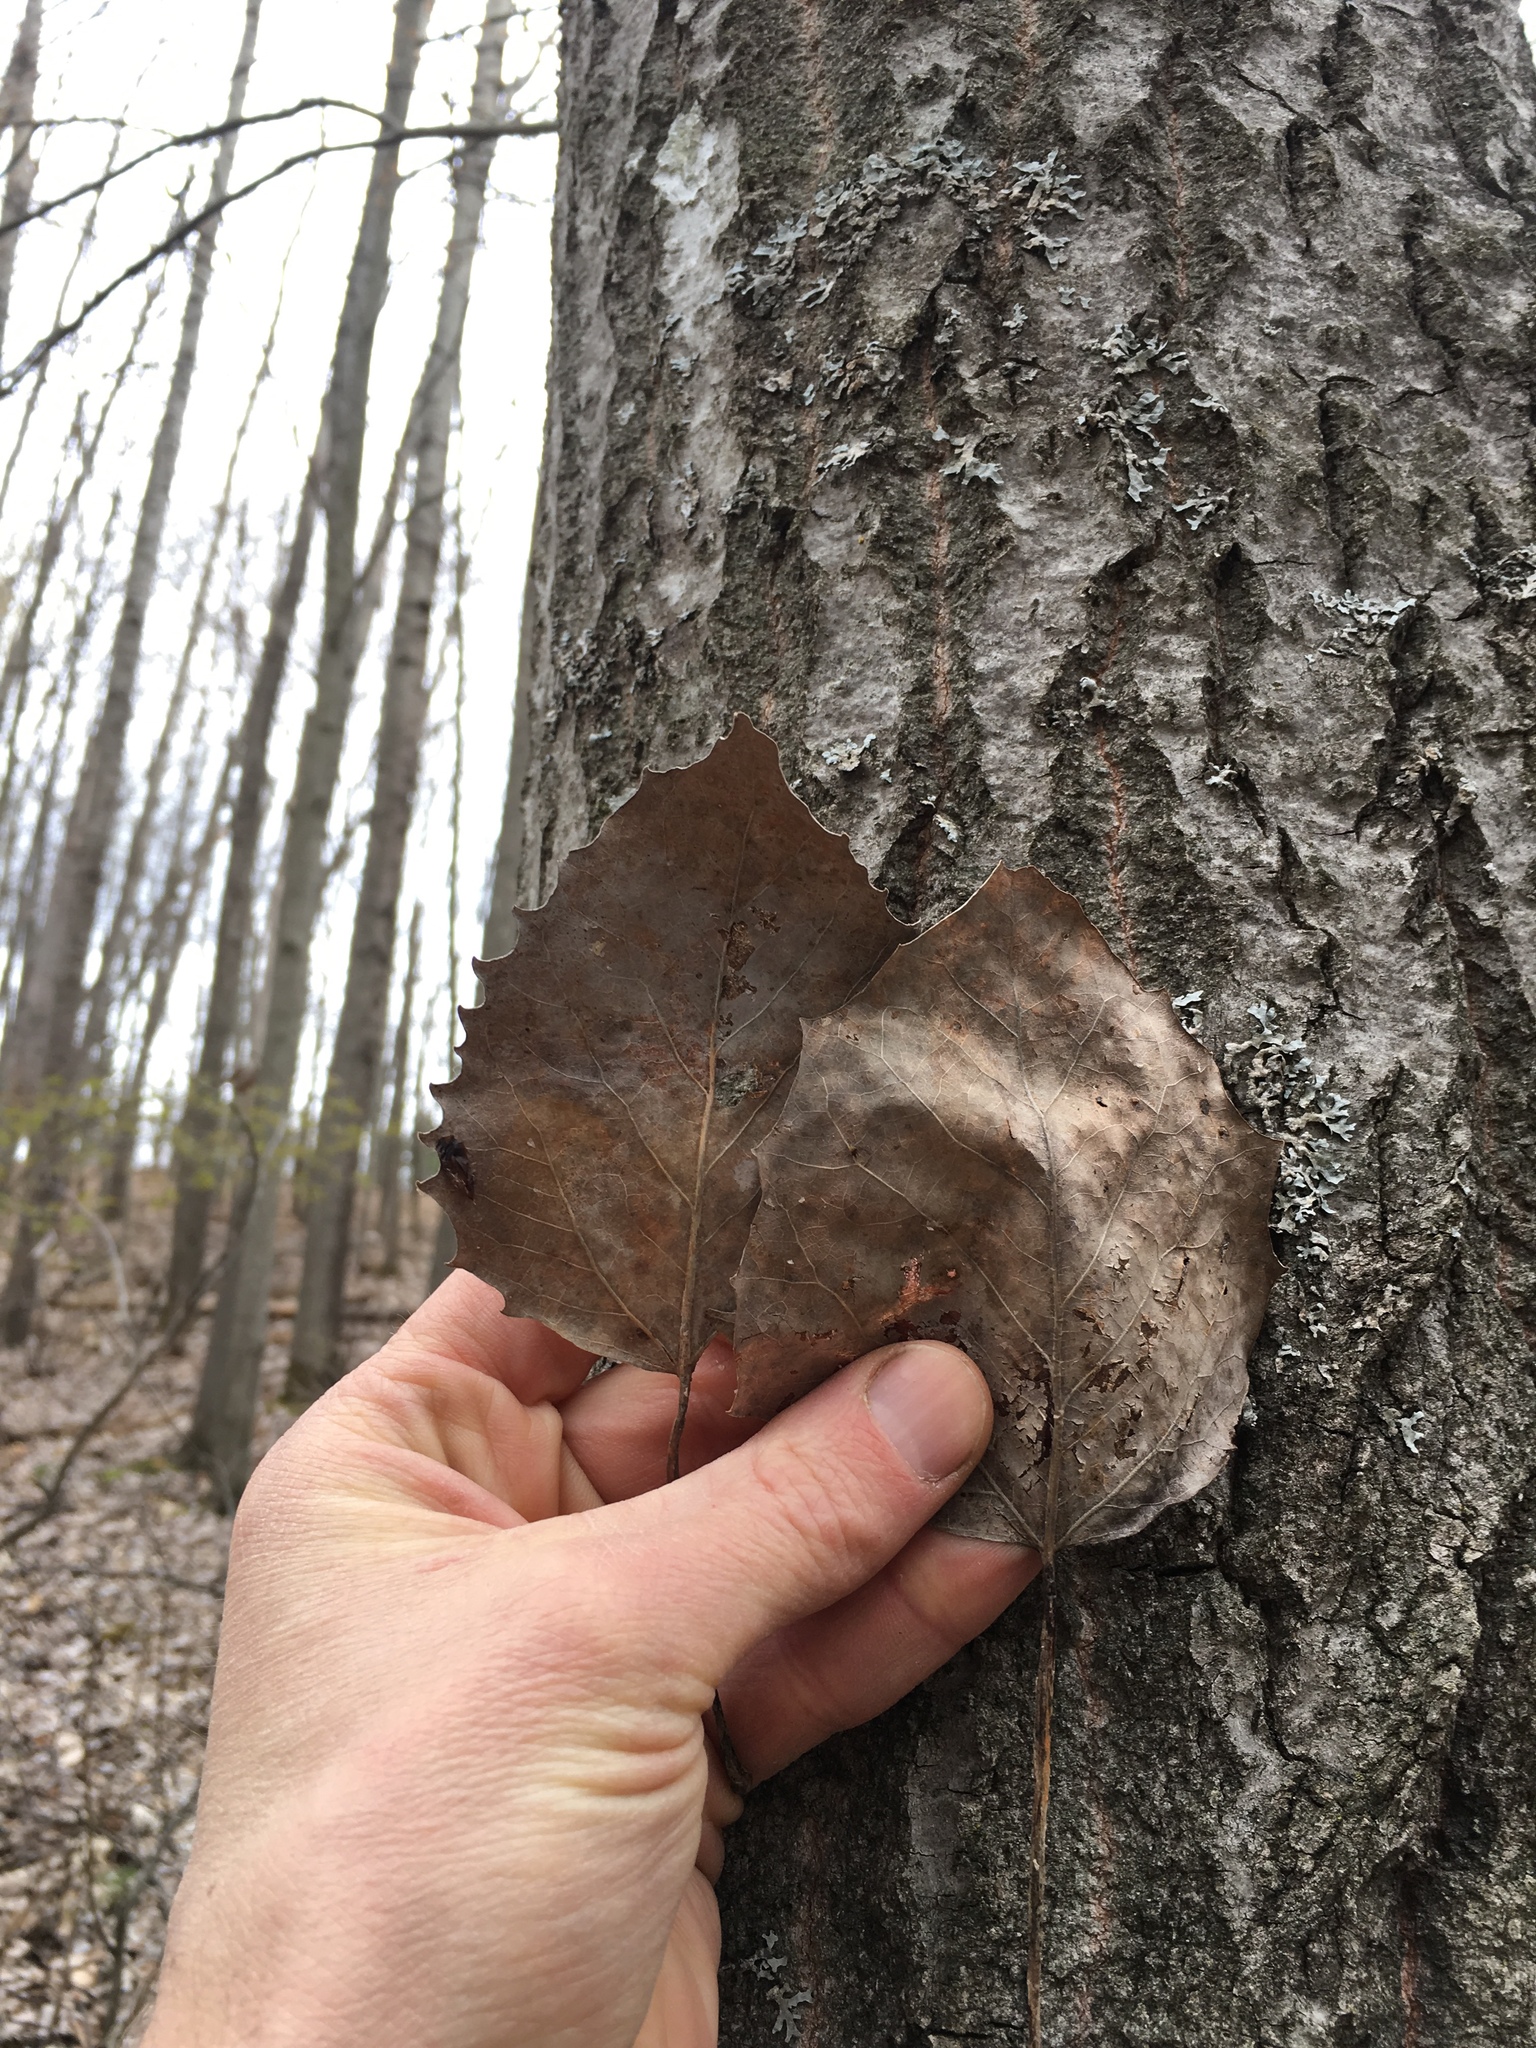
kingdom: Plantae
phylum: Tracheophyta
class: Magnoliopsida
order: Malpighiales
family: Salicaceae
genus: Populus
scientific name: Populus grandidentata
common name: Bigtooth aspen
